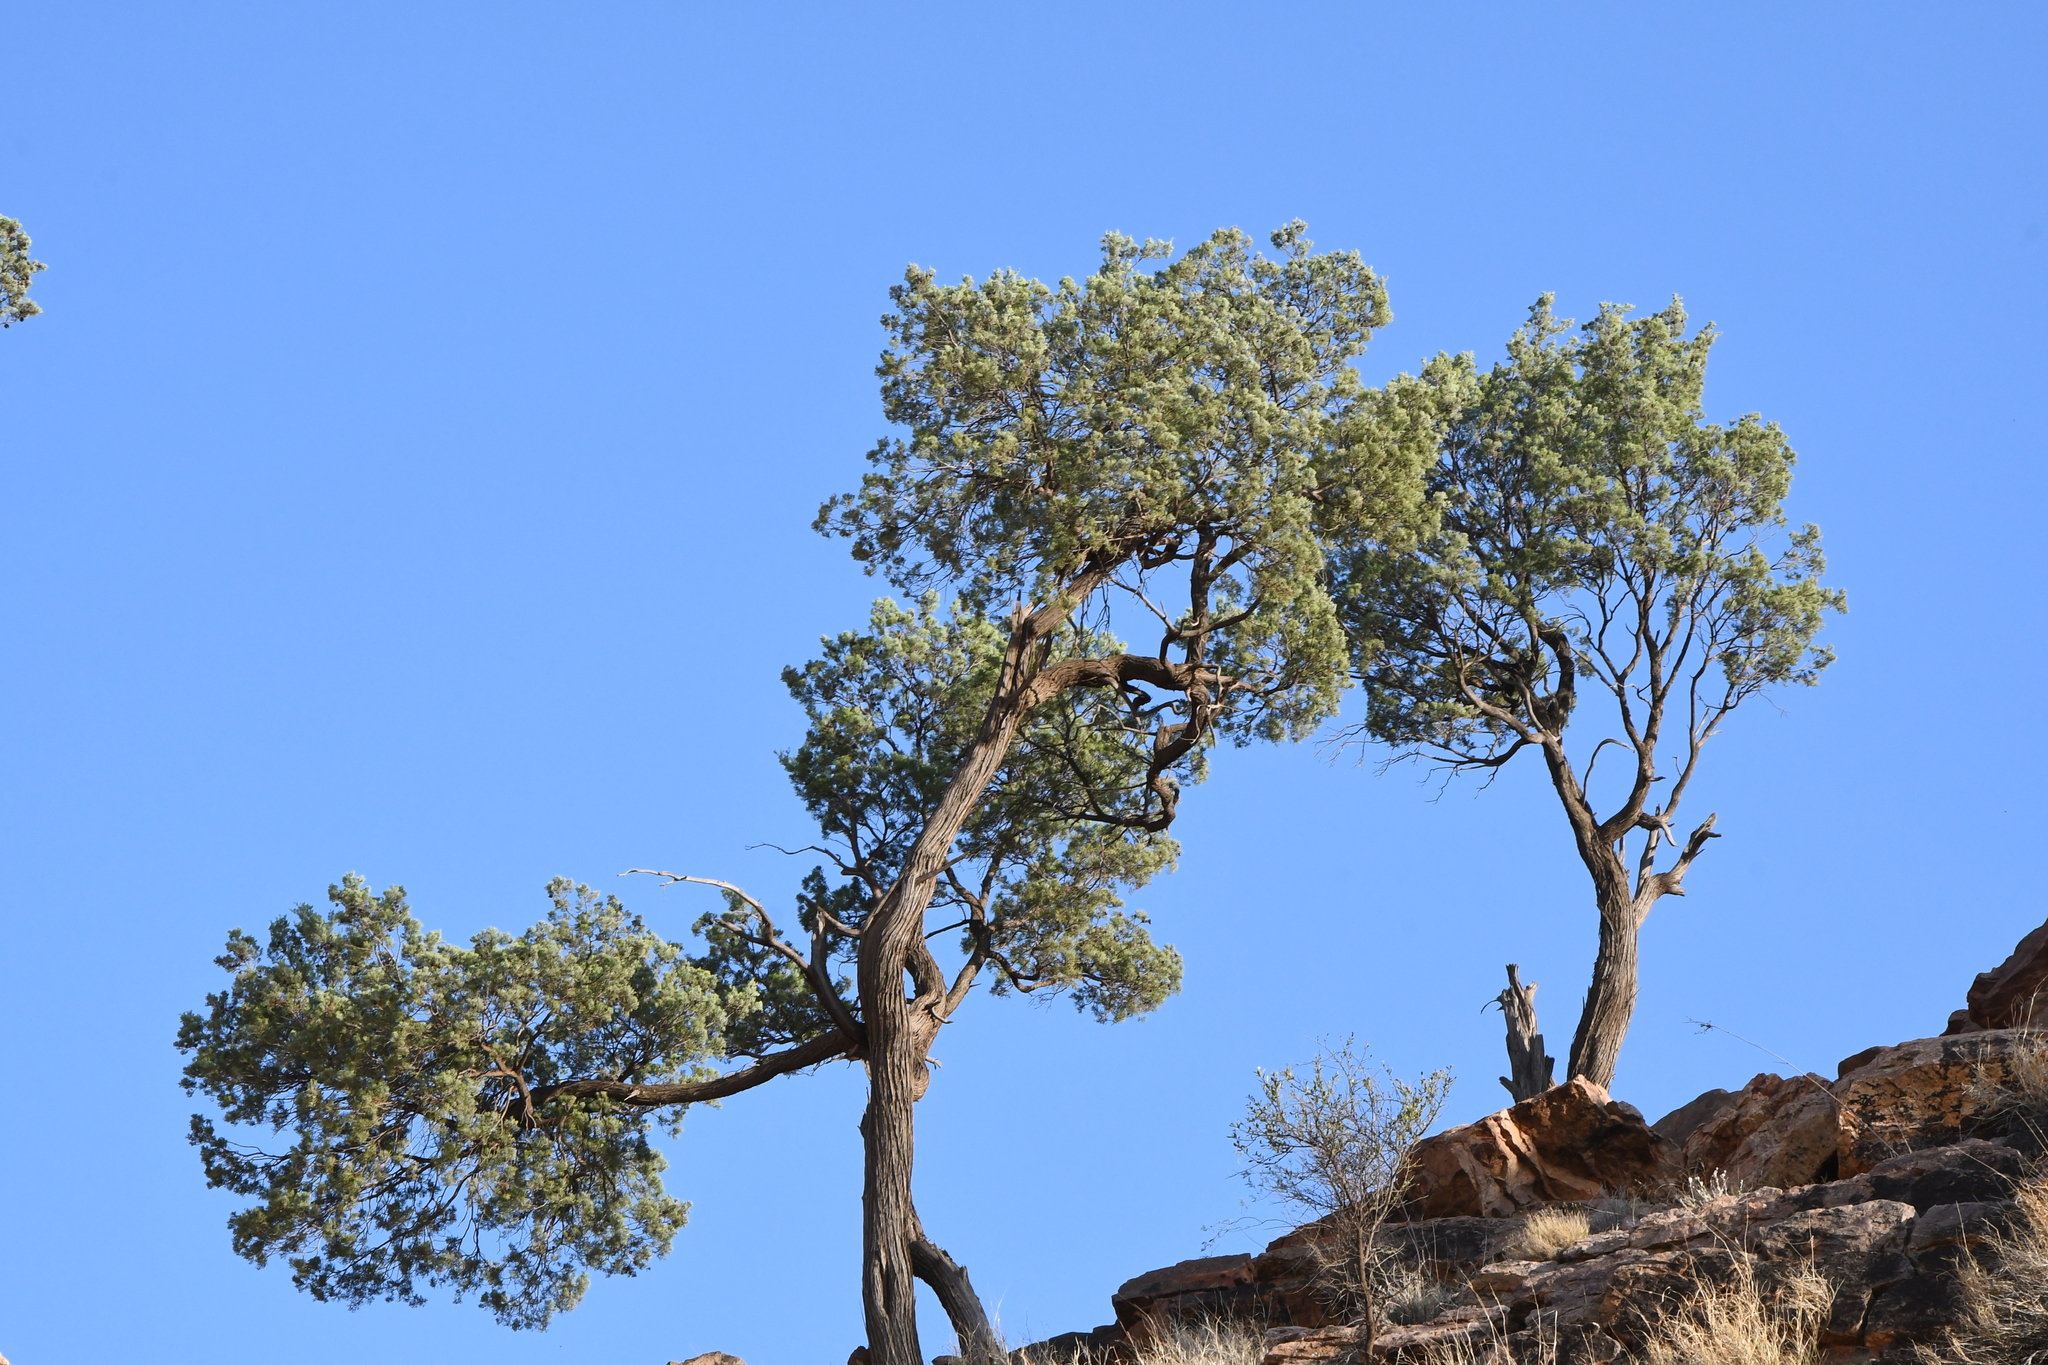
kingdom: Plantae
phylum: Tracheophyta
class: Pinopsida
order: Pinales
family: Cupressaceae
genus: Callitris
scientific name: Callitris columellaris
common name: White cypress-pine
